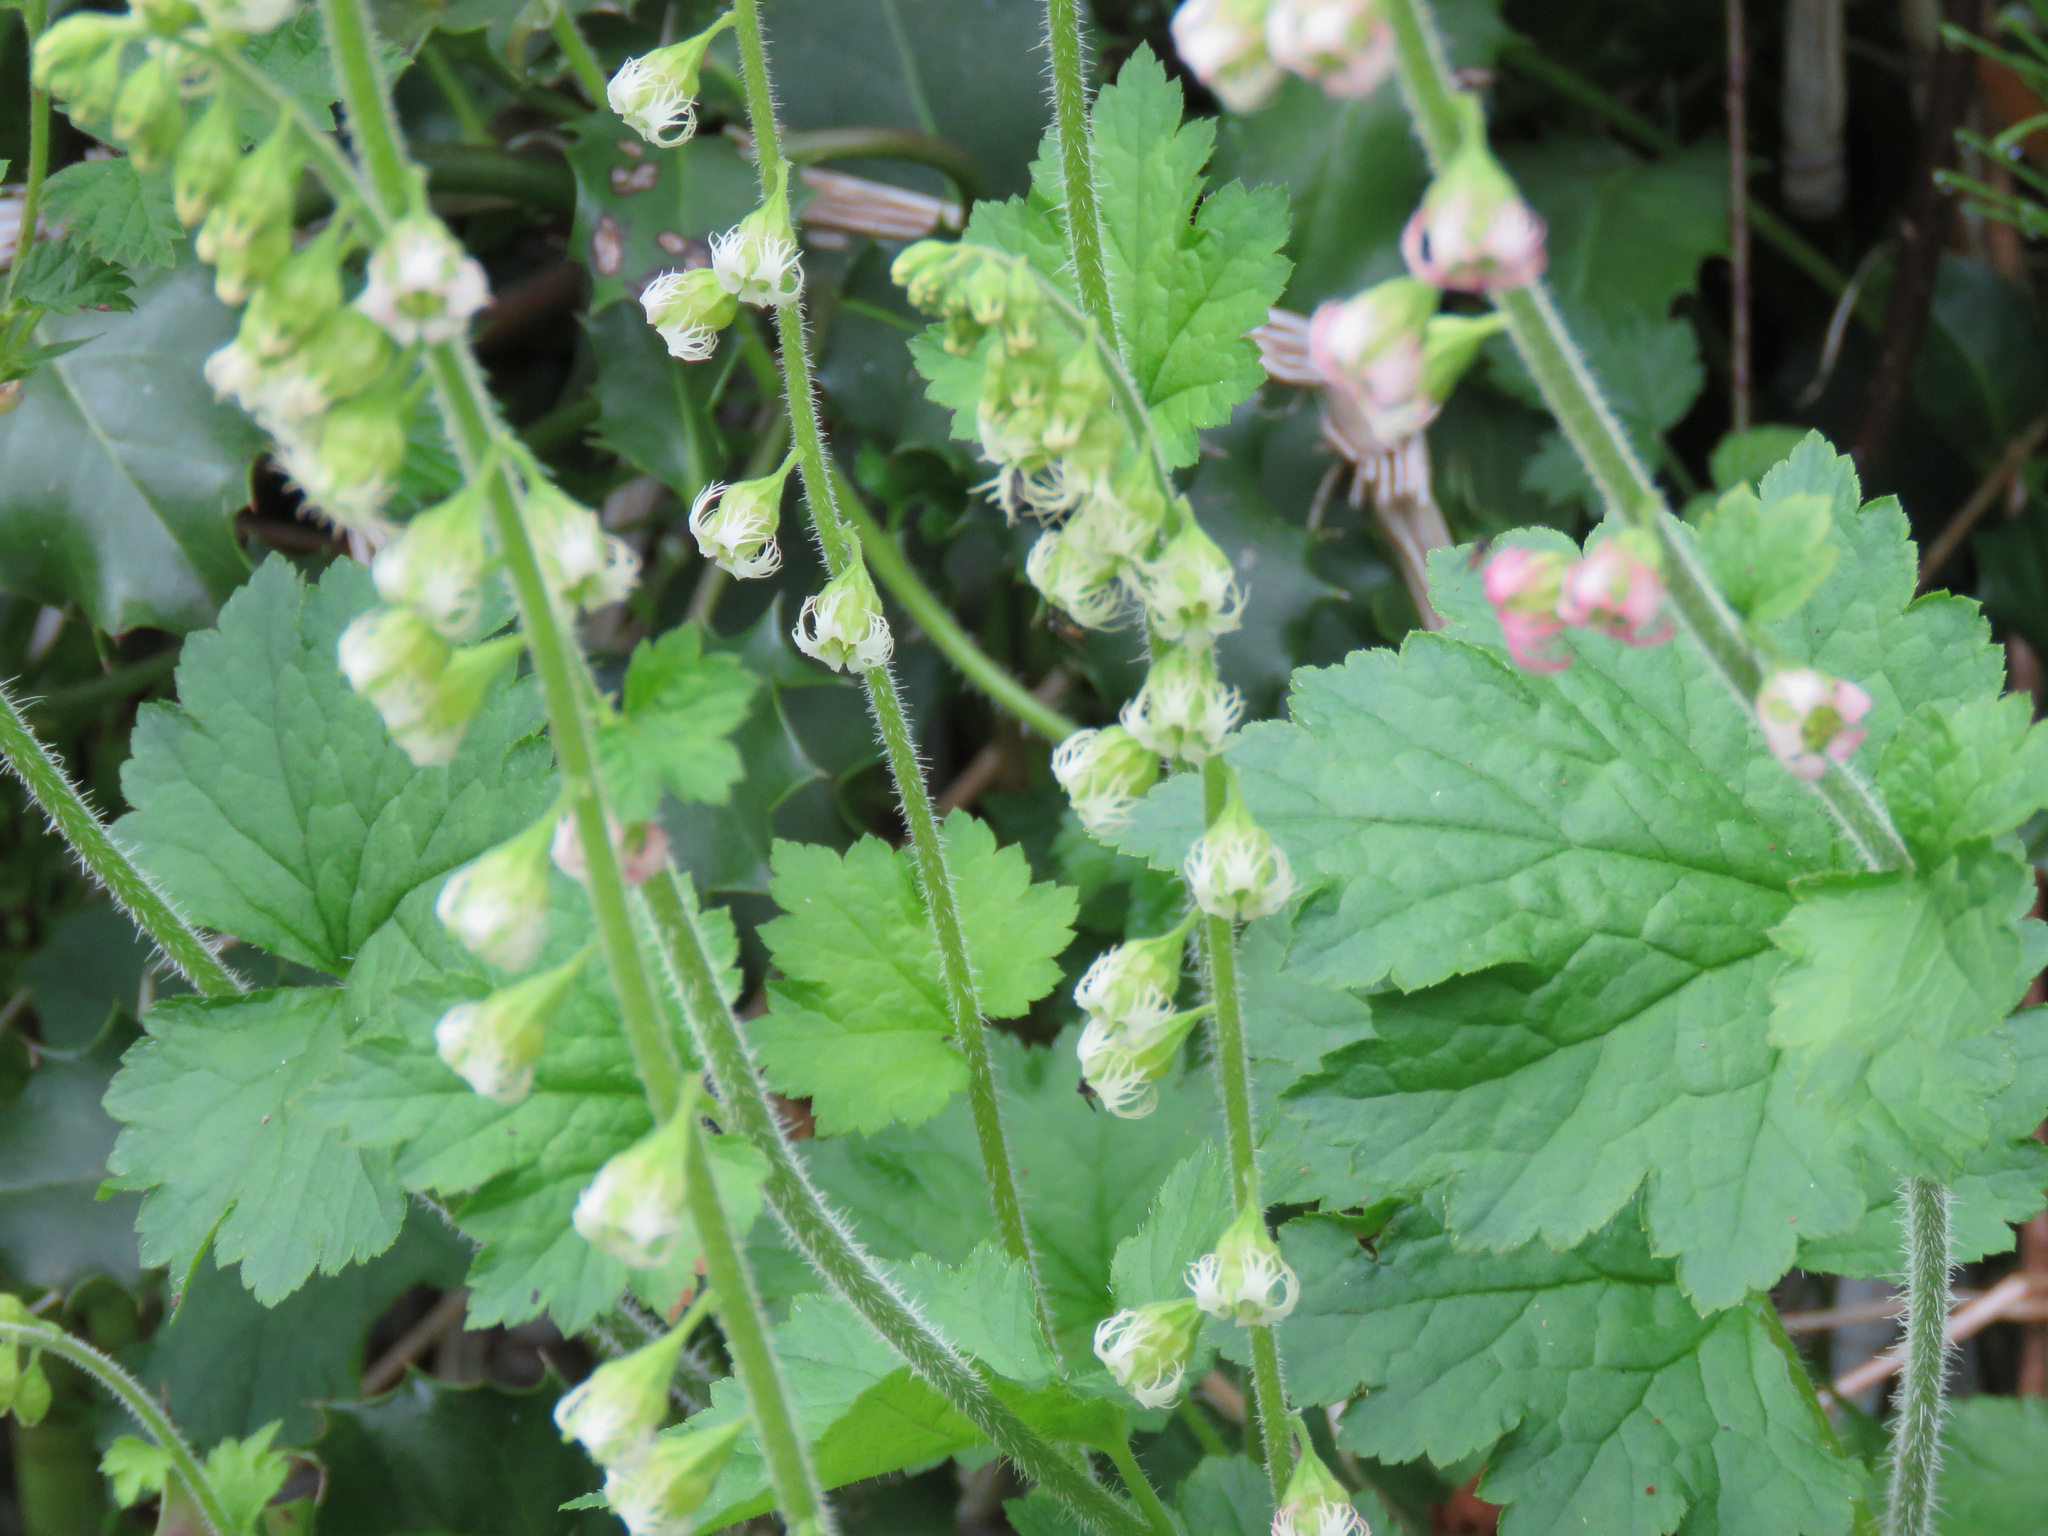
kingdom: Plantae
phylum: Tracheophyta
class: Magnoliopsida
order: Saxifragales
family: Saxifragaceae
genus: Tellima
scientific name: Tellima grandiflora
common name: Fringecups
